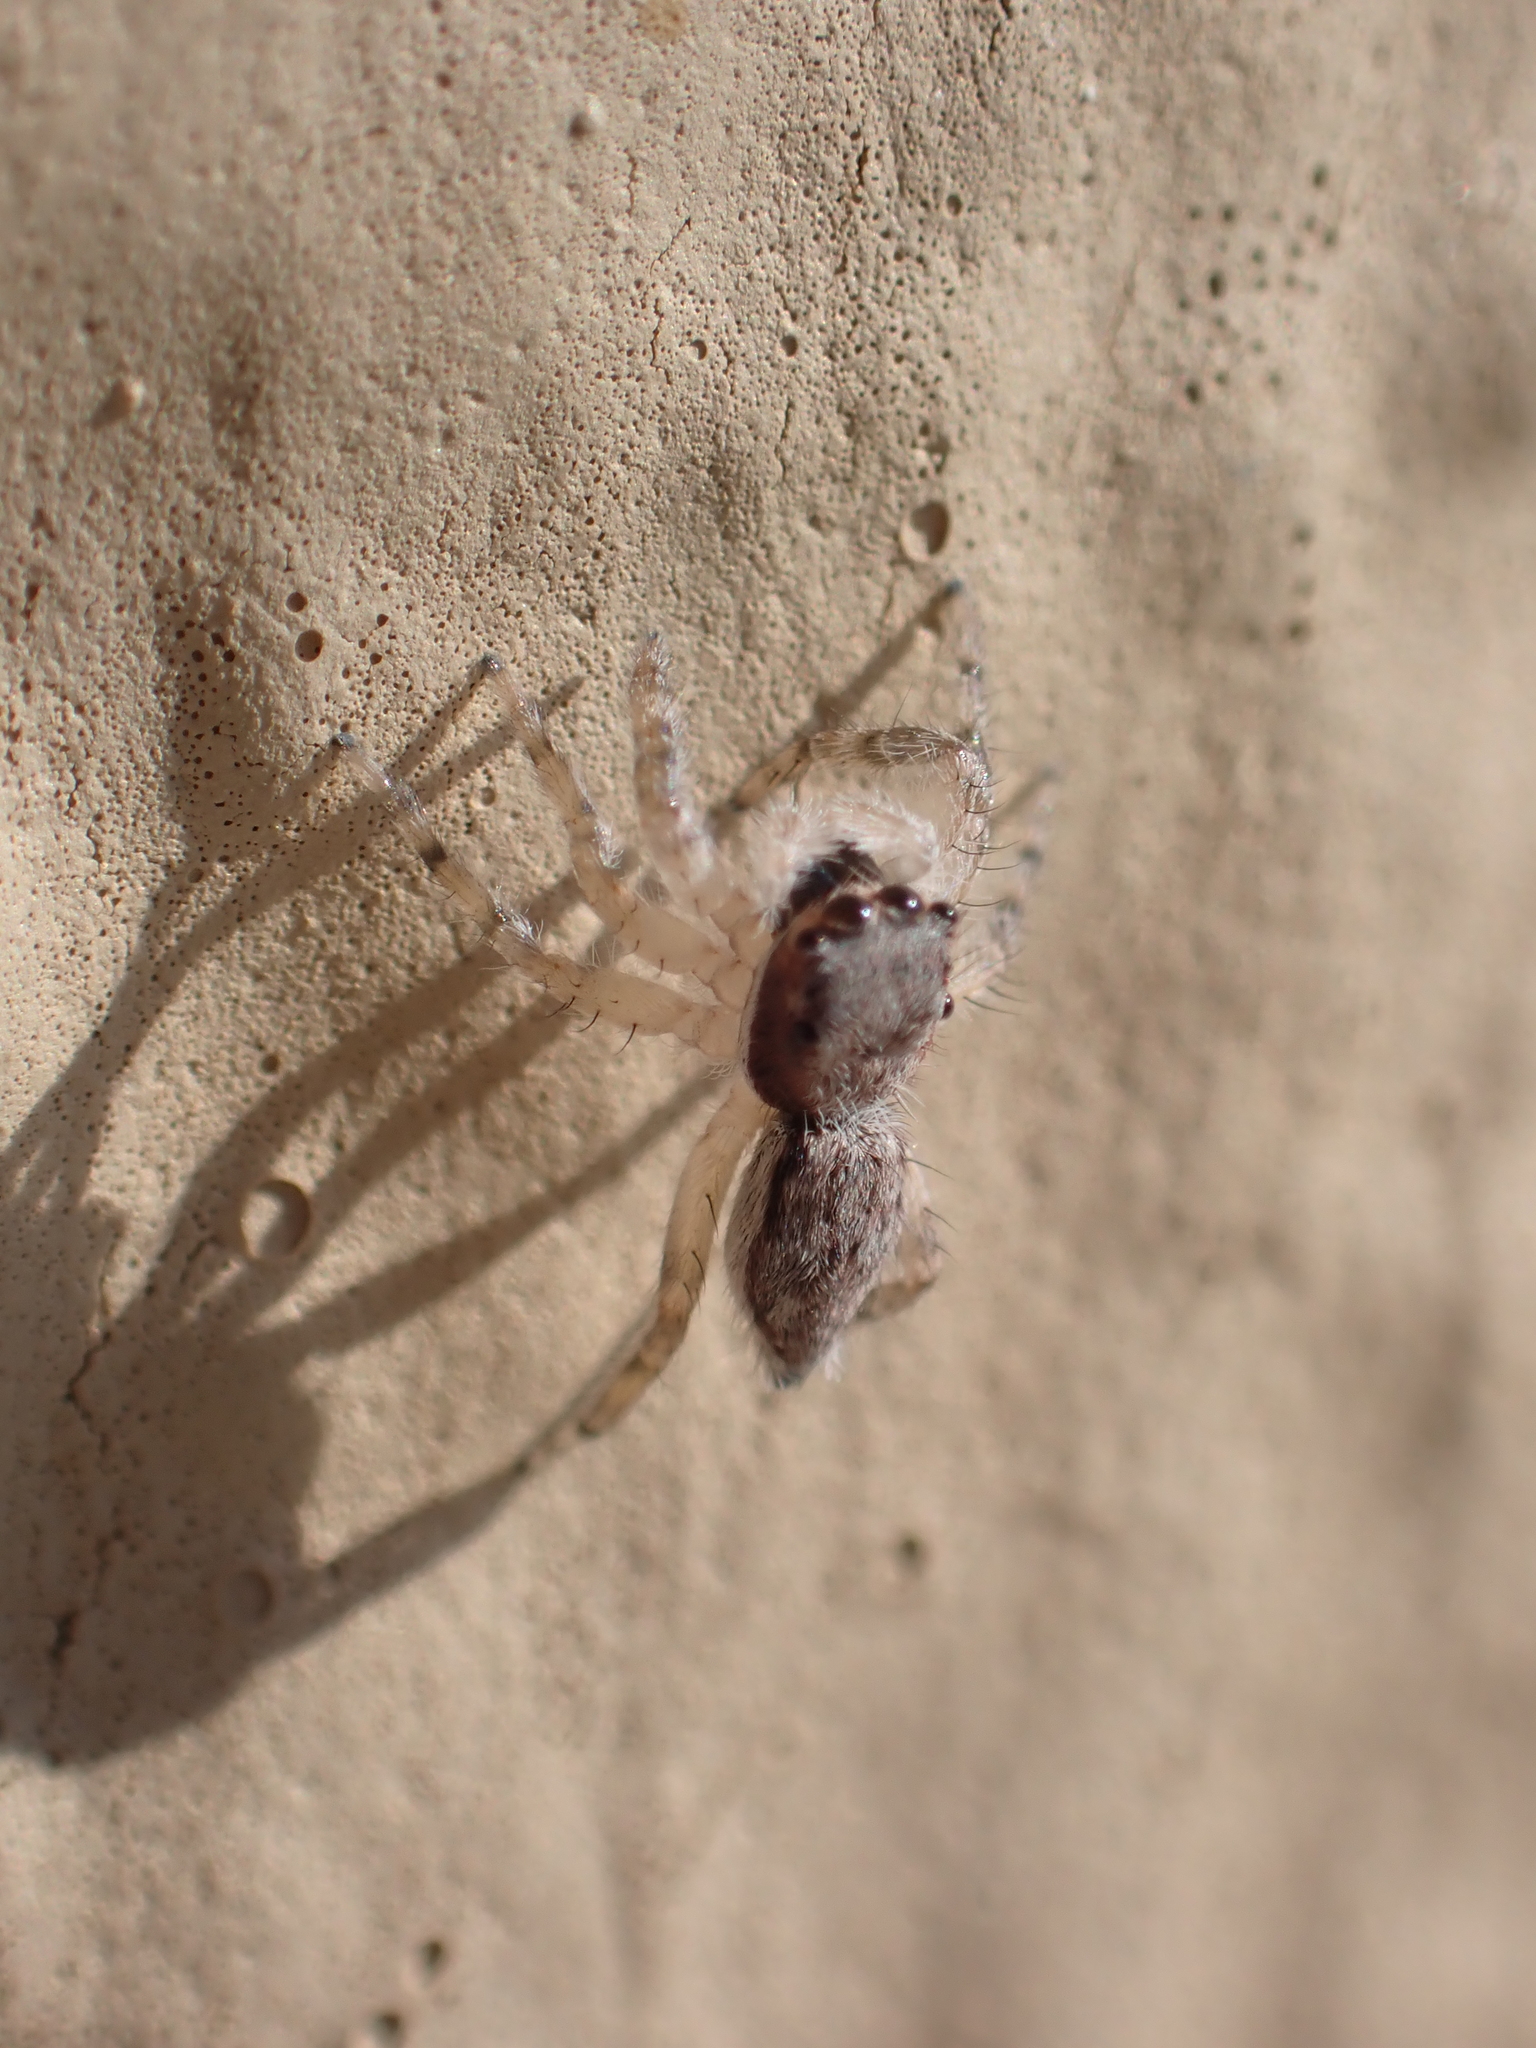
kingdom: Animalia
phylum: Arthropoda
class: Arachnida
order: Araneae
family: Salticidae
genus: Menemerus
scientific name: Menemerus bivittatus
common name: Gray wall jumper
